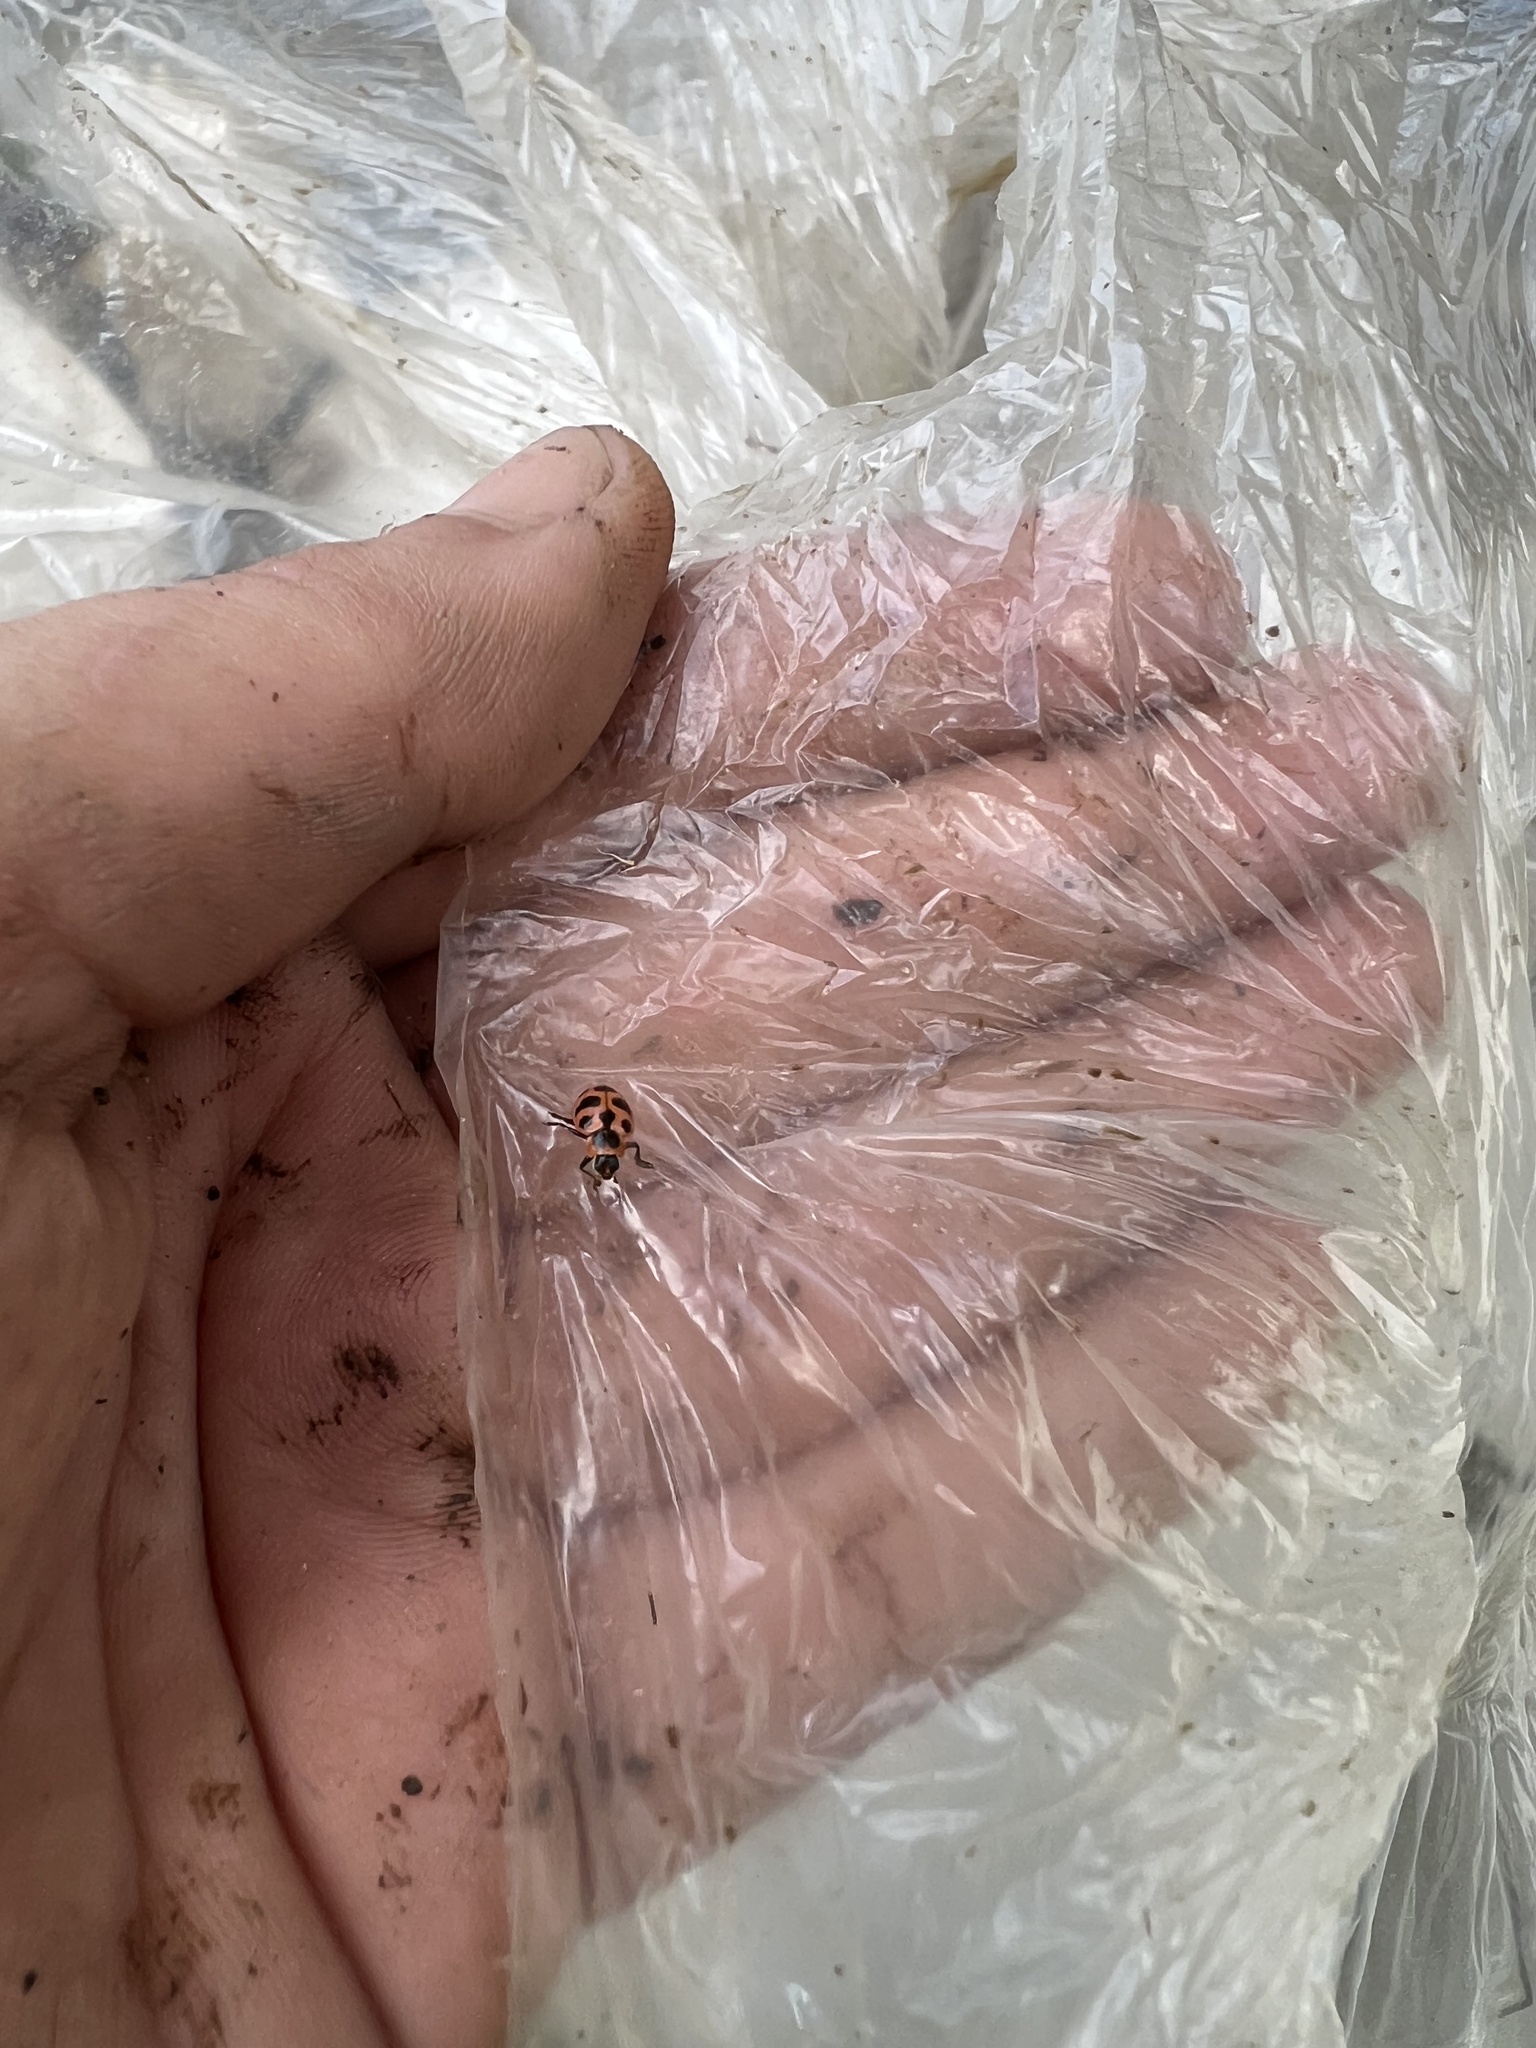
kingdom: Animalia
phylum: Arthropoda
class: Insecta
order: Coleoptera
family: Coccinellidae
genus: Coleomegilla
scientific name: Coleomegilla maculata
